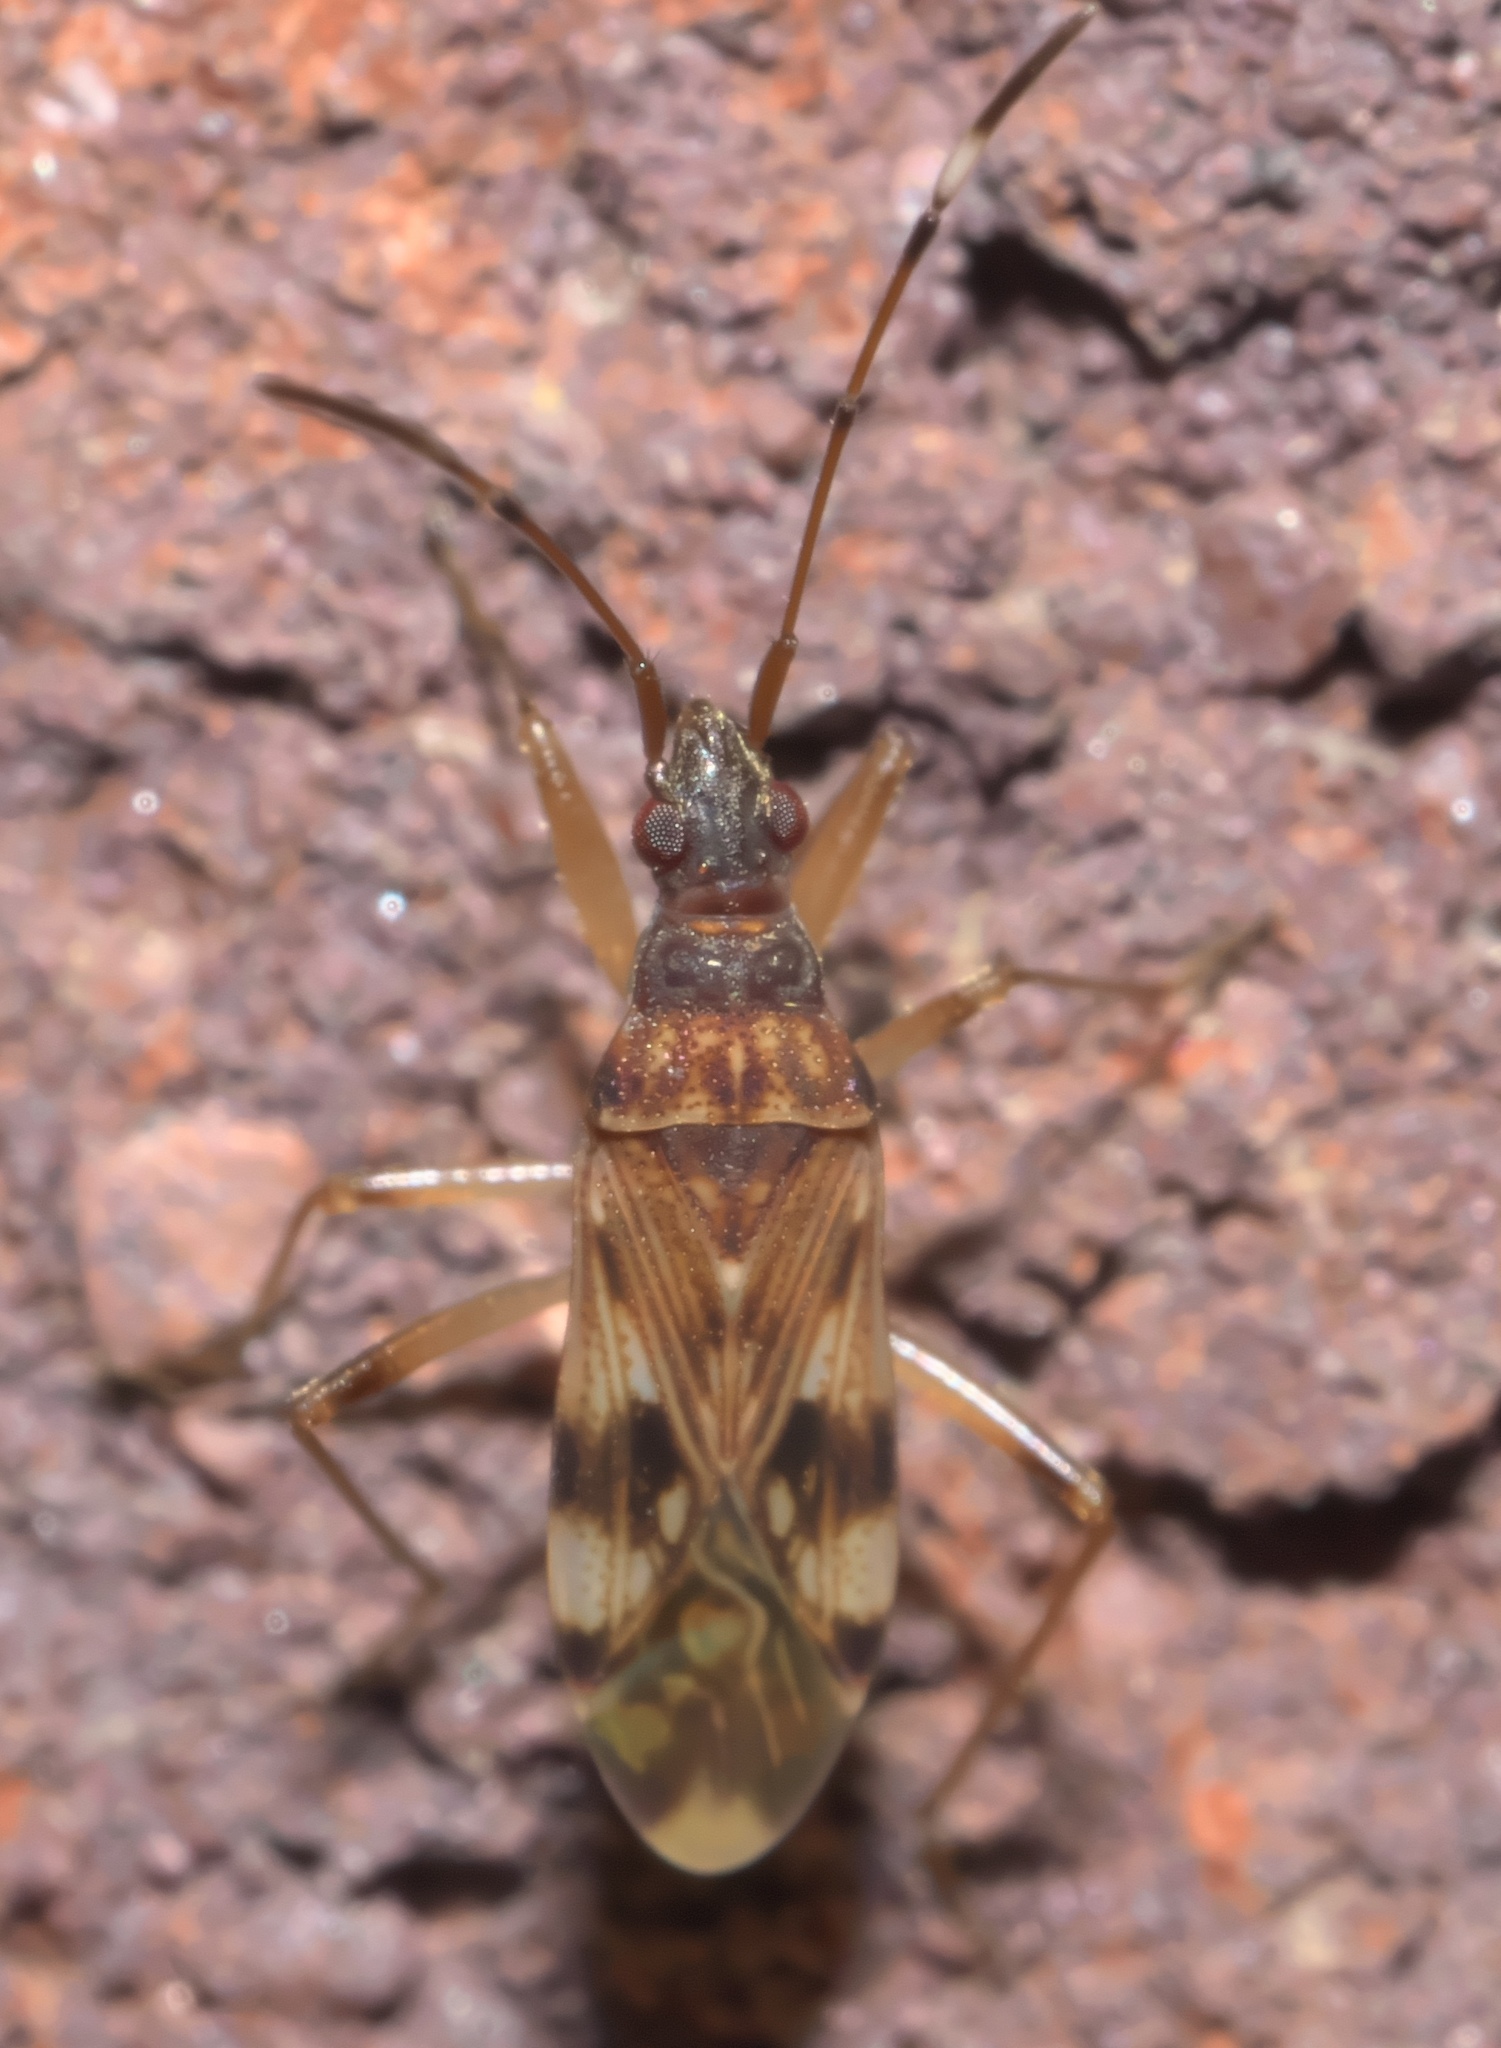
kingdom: Animalia
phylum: Arthropoda
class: Insecta
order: Hemiptera
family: Rhyparochromidae
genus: Ozophora
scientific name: Ozophora picturata
